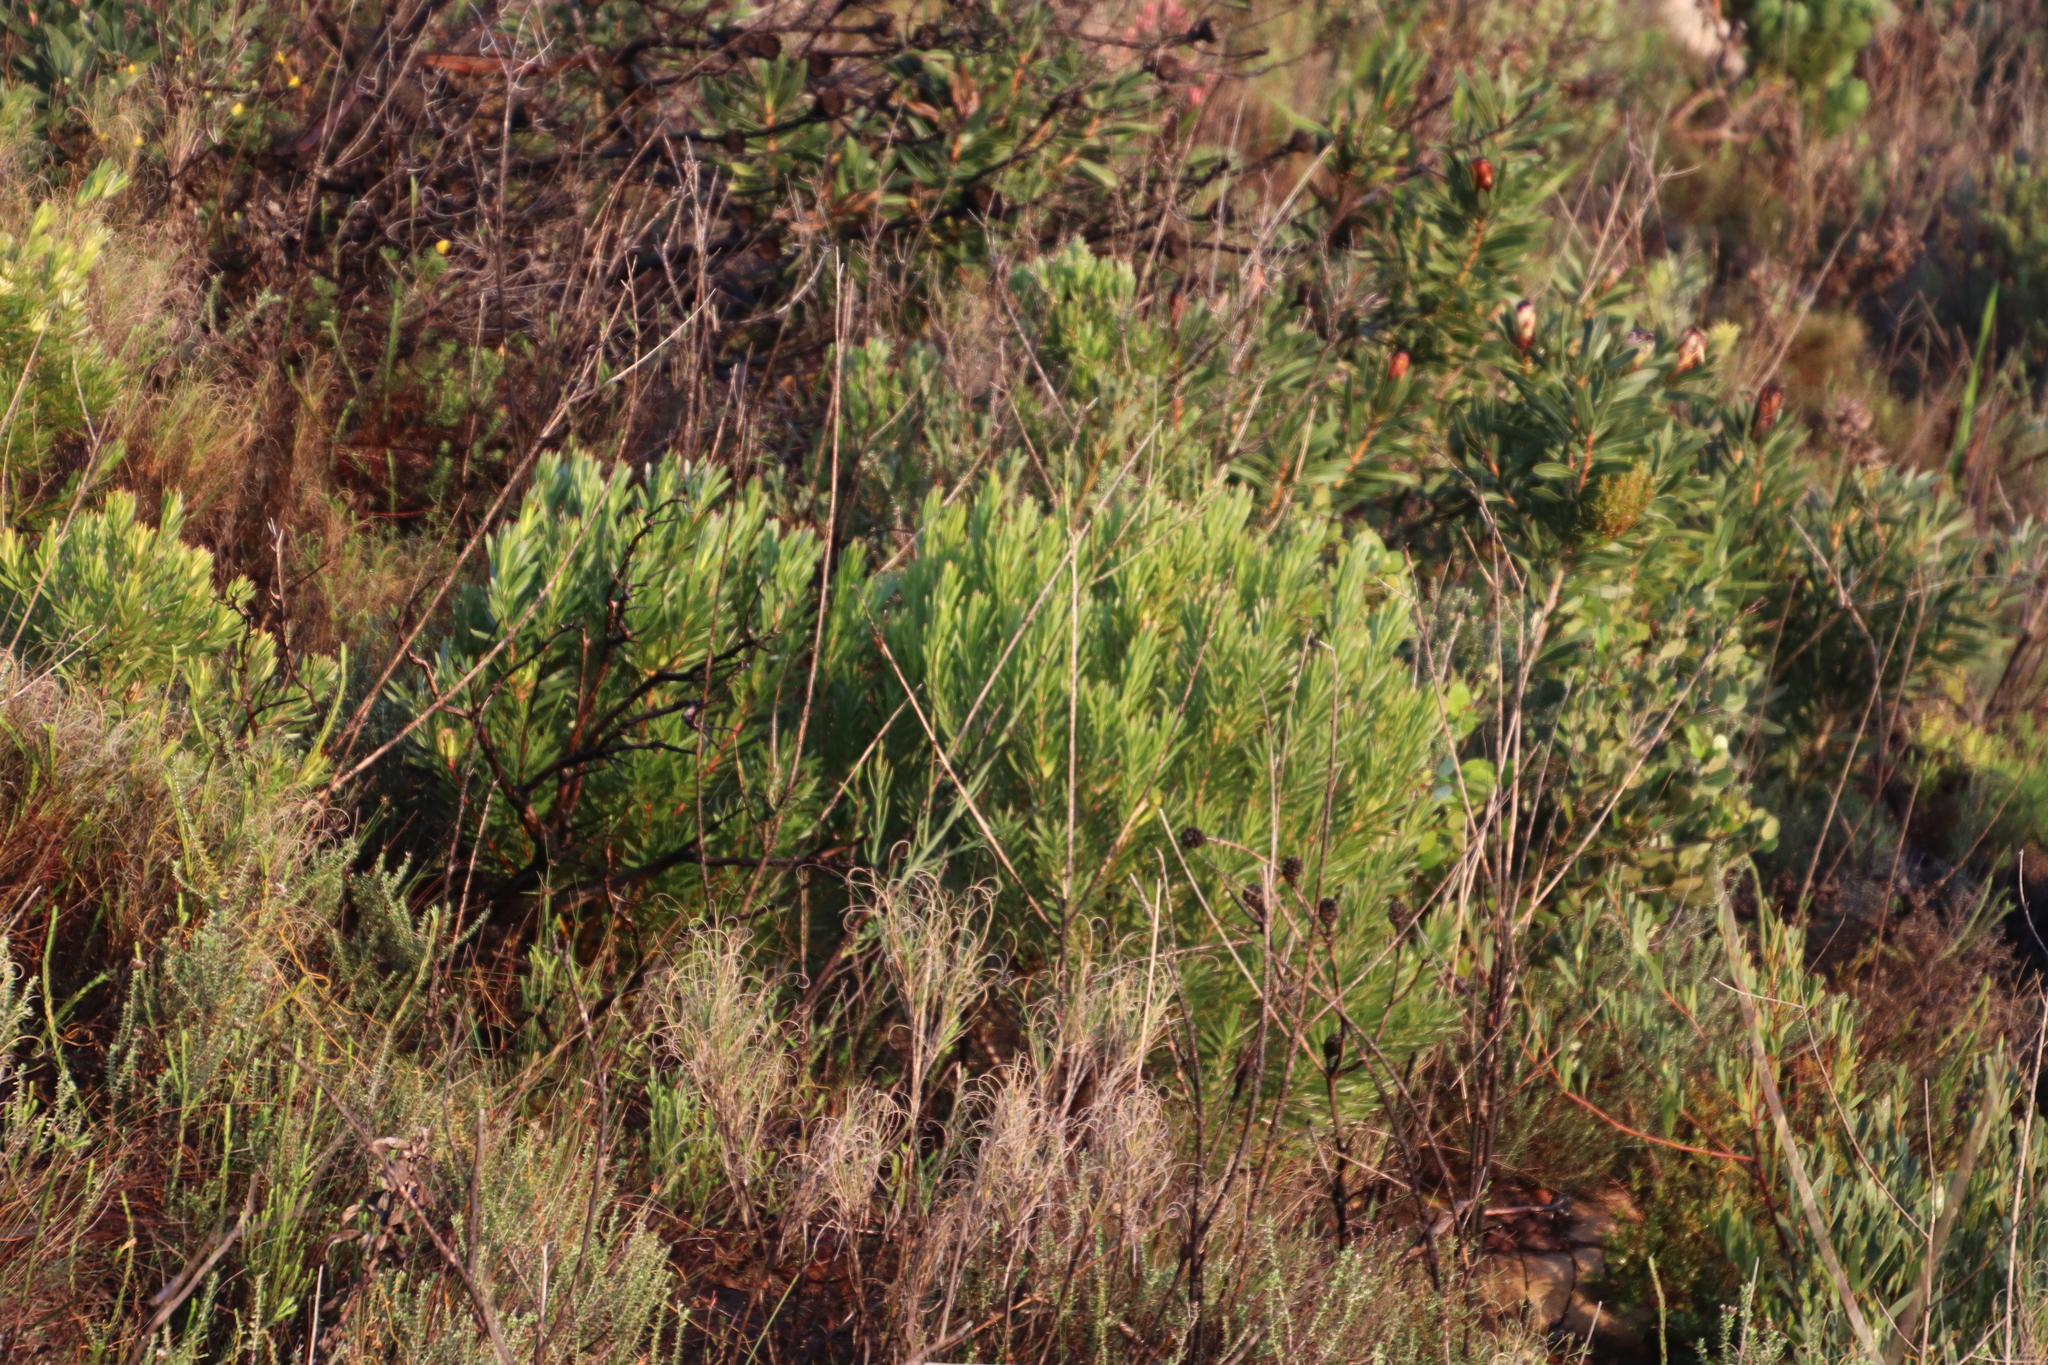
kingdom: Plantae
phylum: Tracheophyta
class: Magnoliopsida
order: Proteales
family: Proteaceae
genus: Leucadendron
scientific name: Leucadendron xanthoconus
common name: Sickle-leaf conebush
